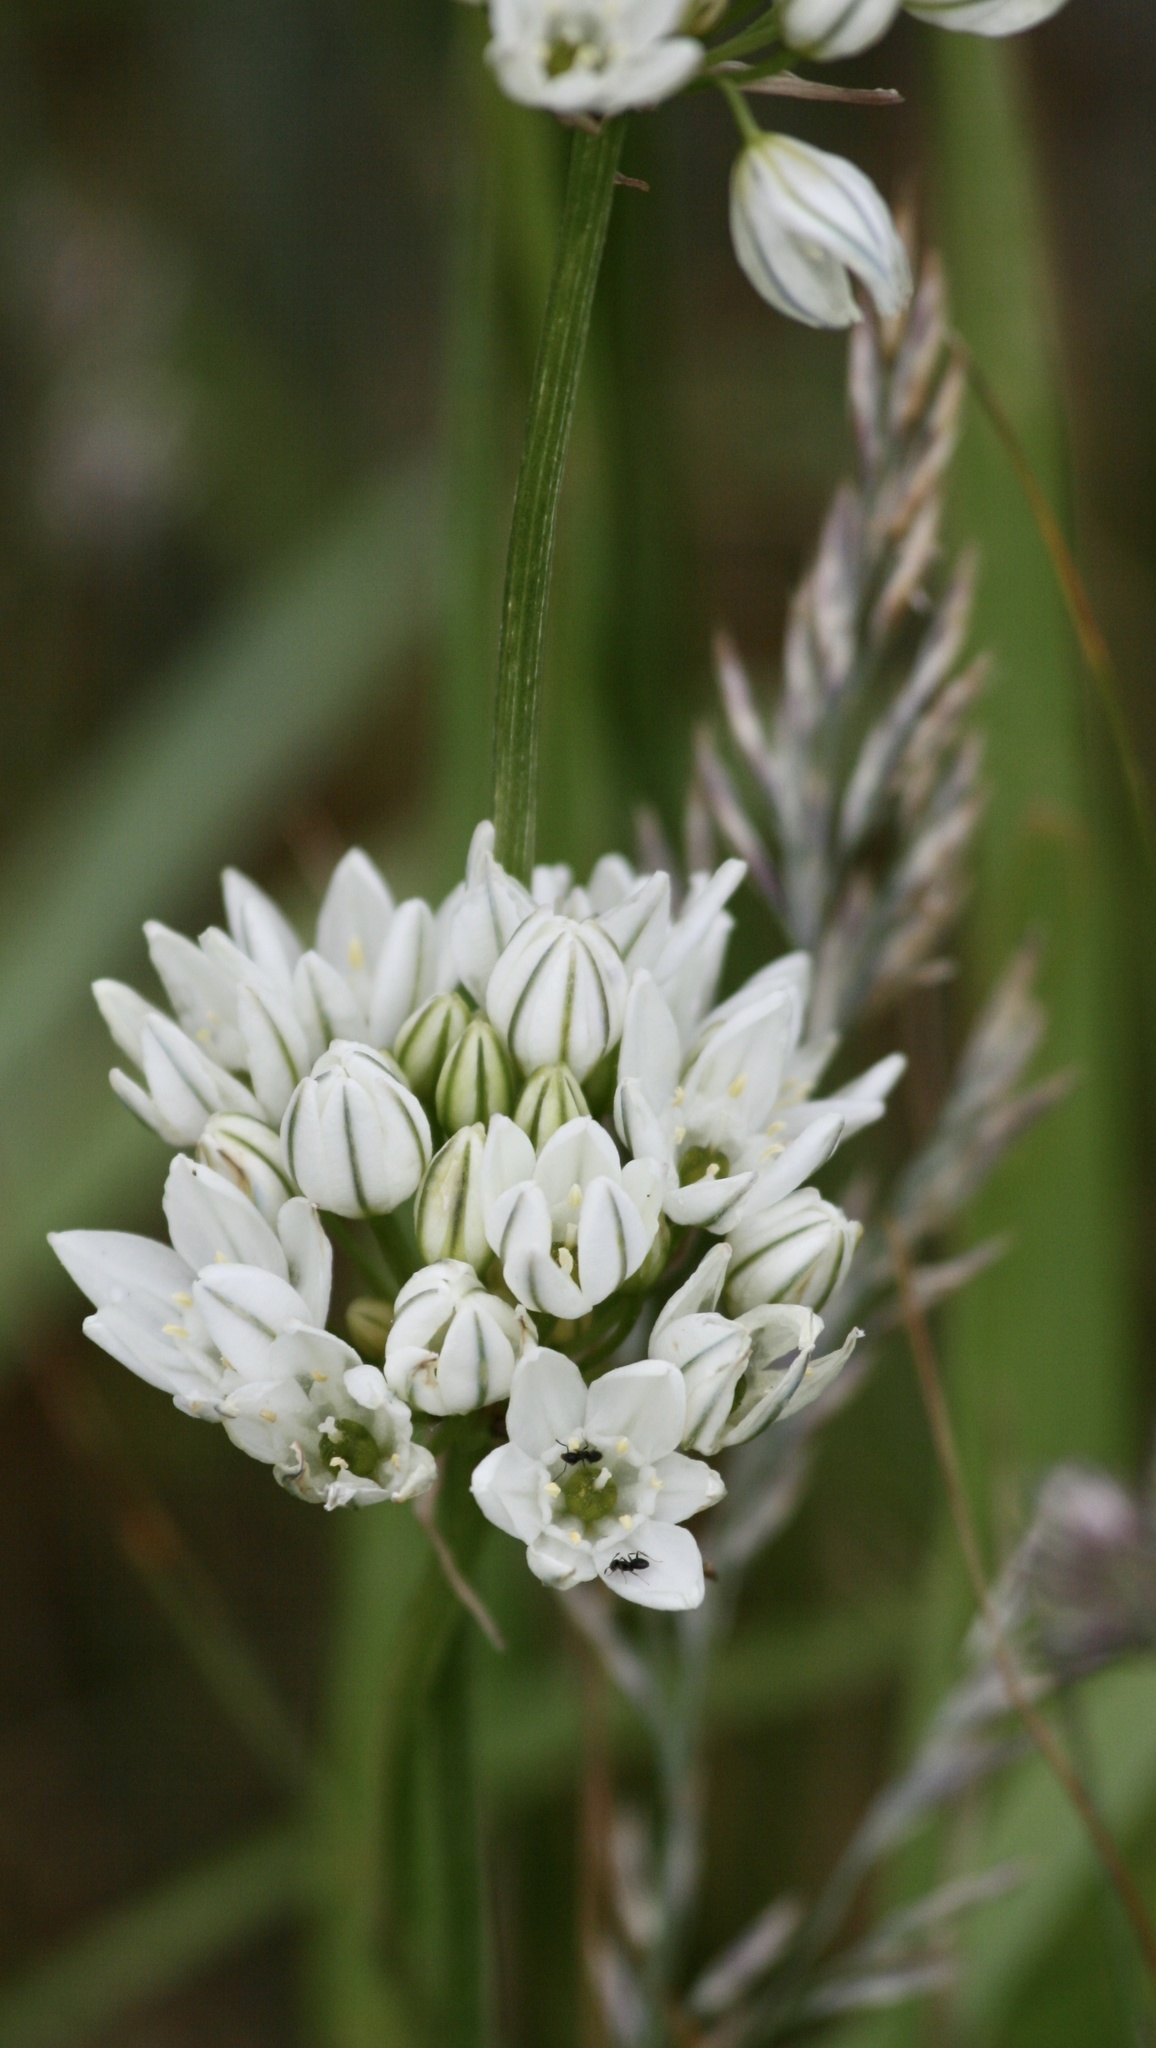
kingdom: Plantae
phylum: Tracheophyta
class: Liliopsida
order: Asparagales
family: Asparagaceae
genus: Triteleia
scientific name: Triteleia hyacinthina
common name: White brodiaea
